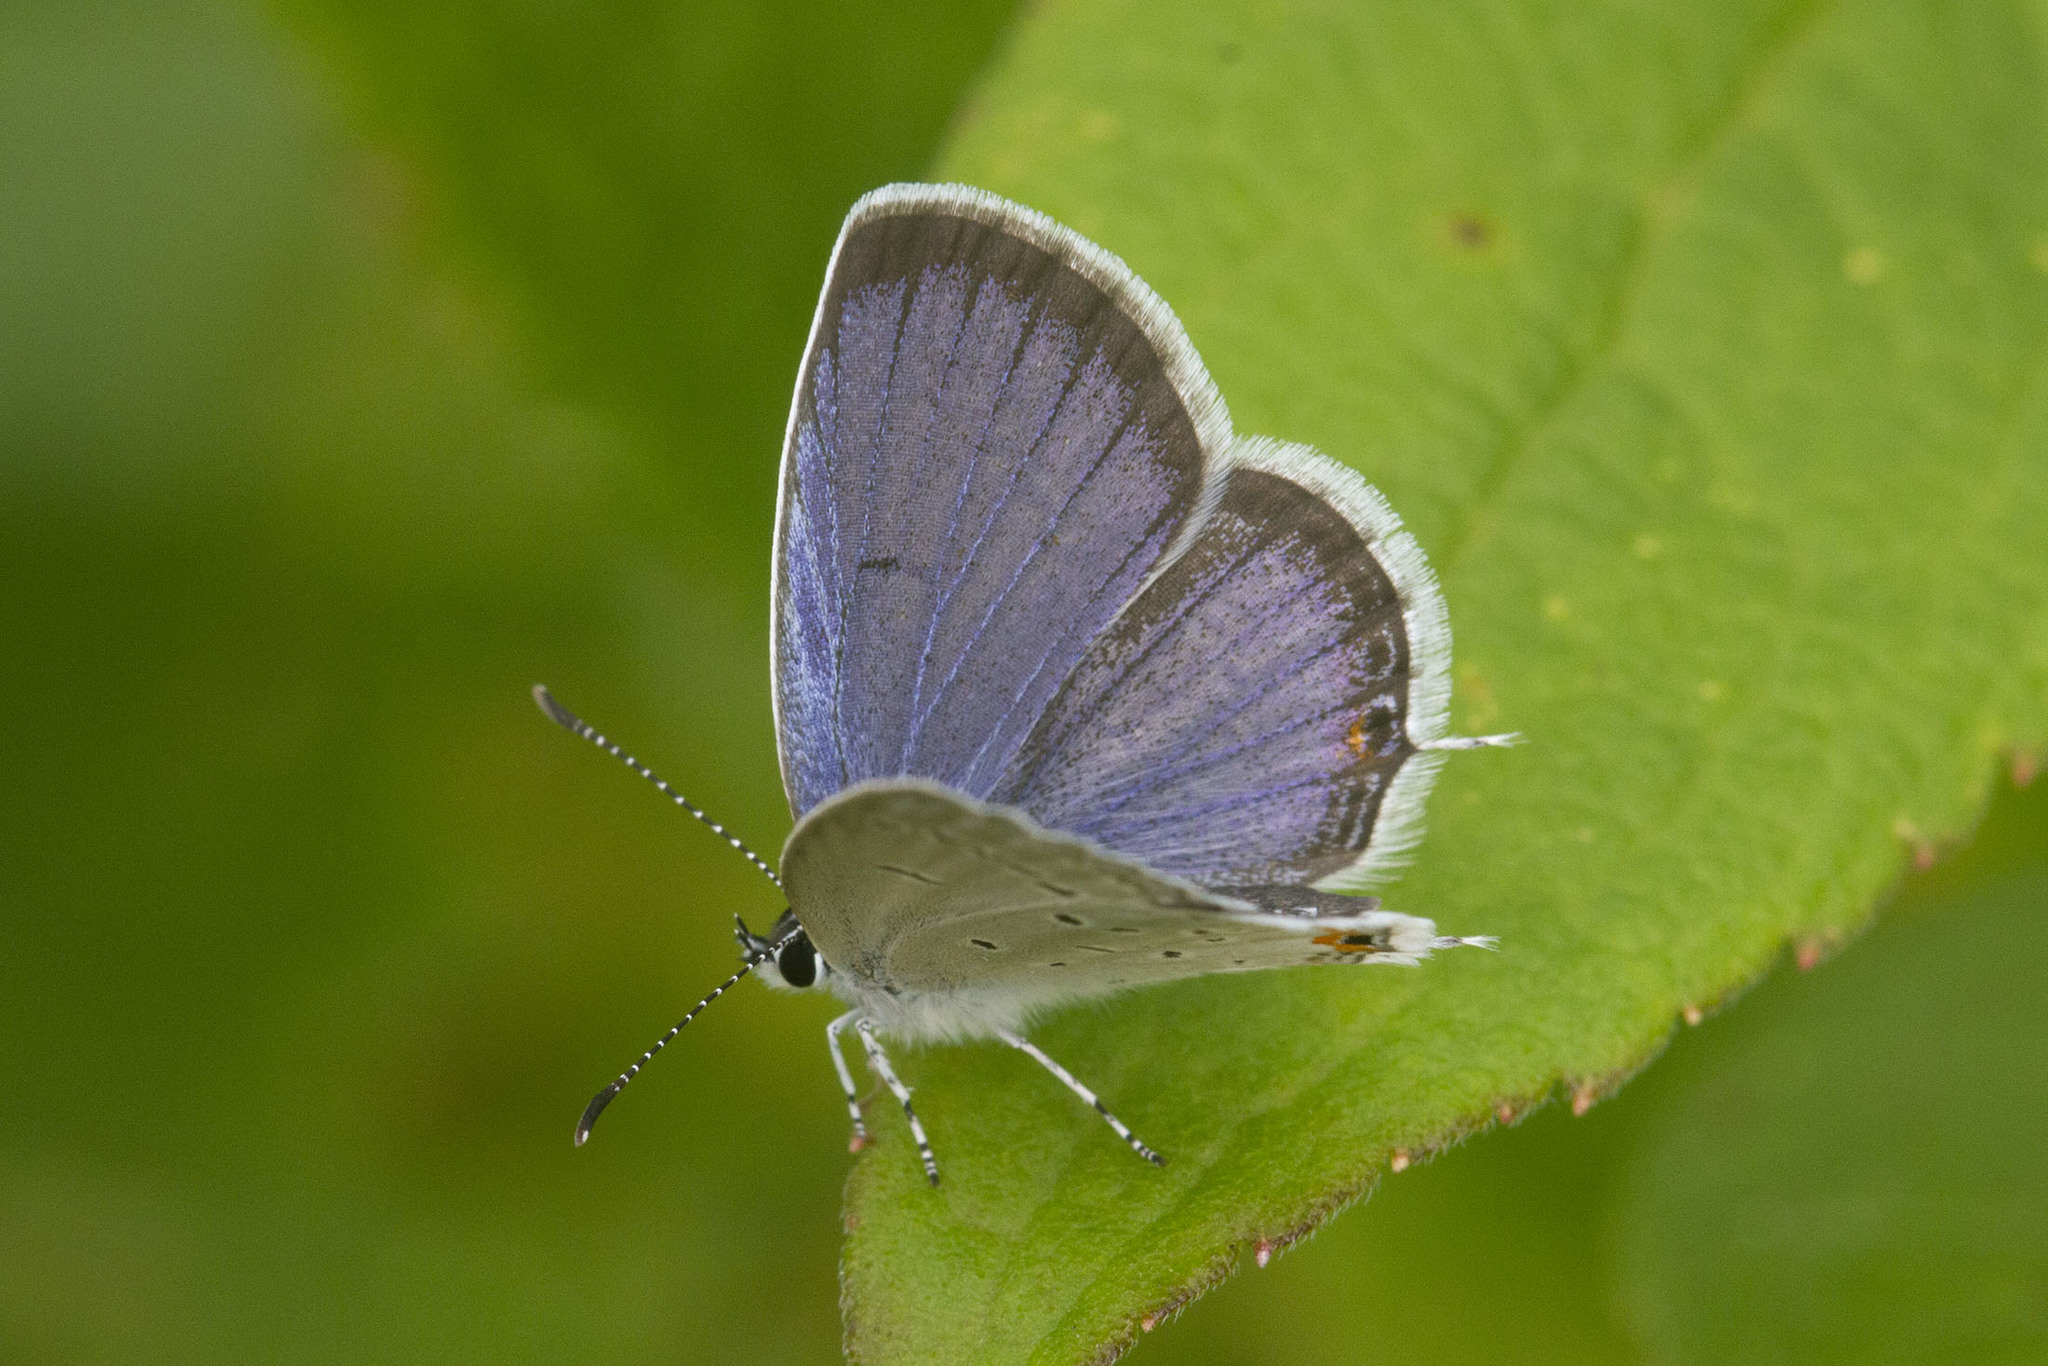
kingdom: Animalia
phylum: Arthropoda
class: Insecta
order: Lepidoptera
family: Lycaenidae
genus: Elkalyce
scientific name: Elkalyce comyntas
